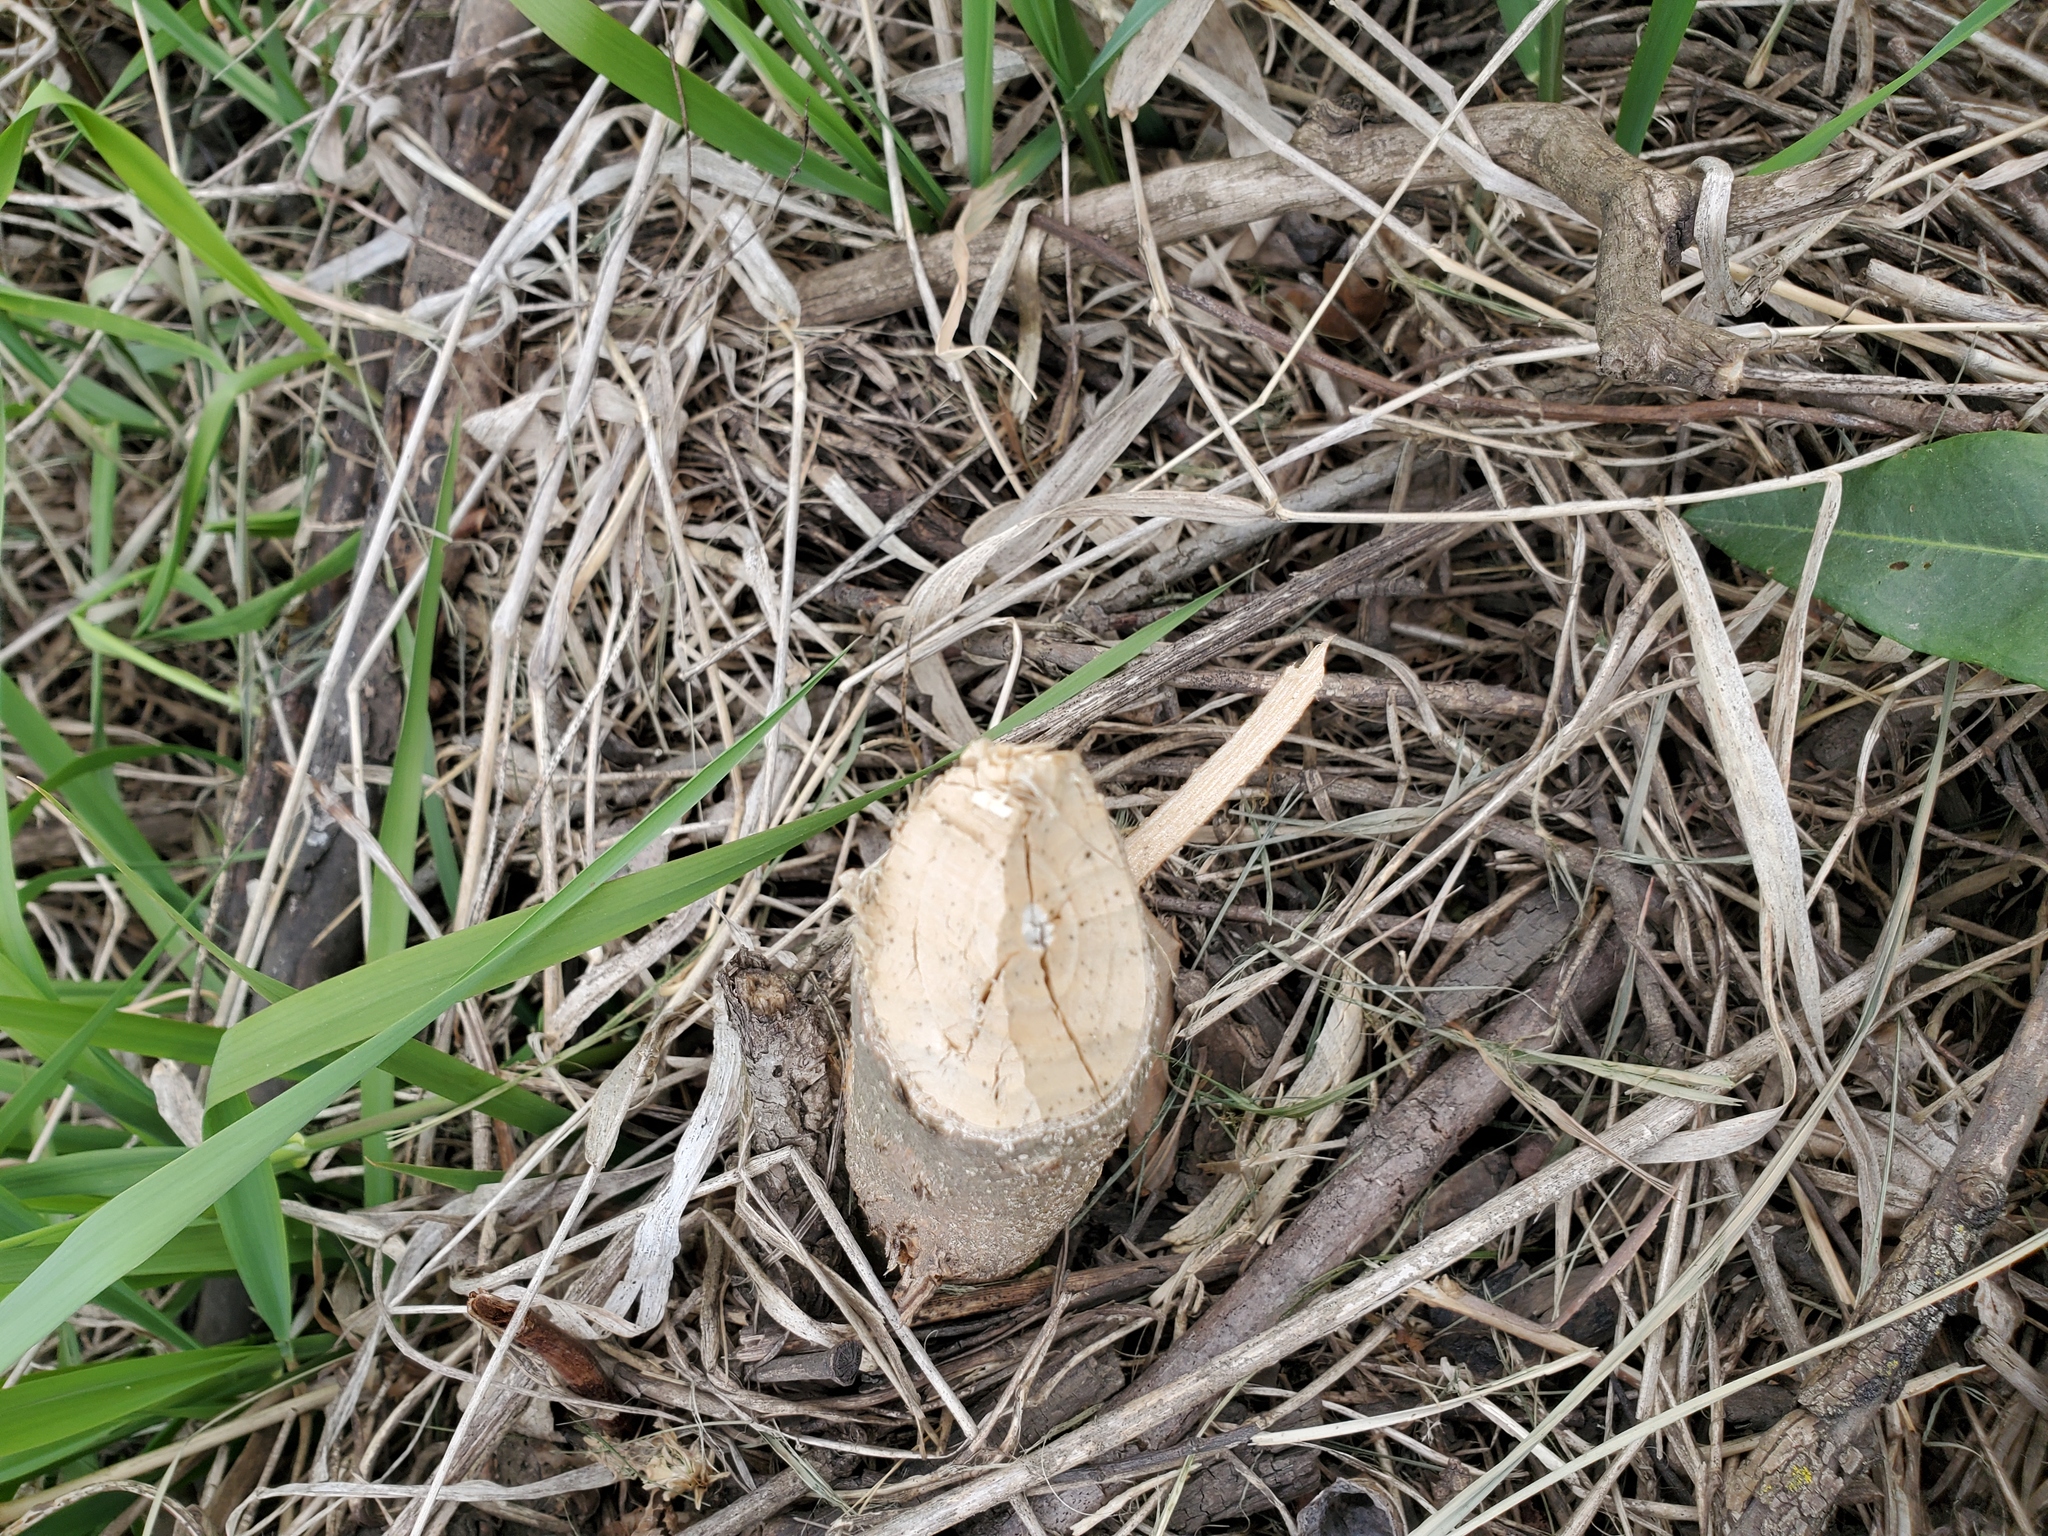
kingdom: Animalia
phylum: Chordata
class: Mammalia
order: Rodentia
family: Castoridae
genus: Castor
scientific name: Castor canadensis
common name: American beaver
